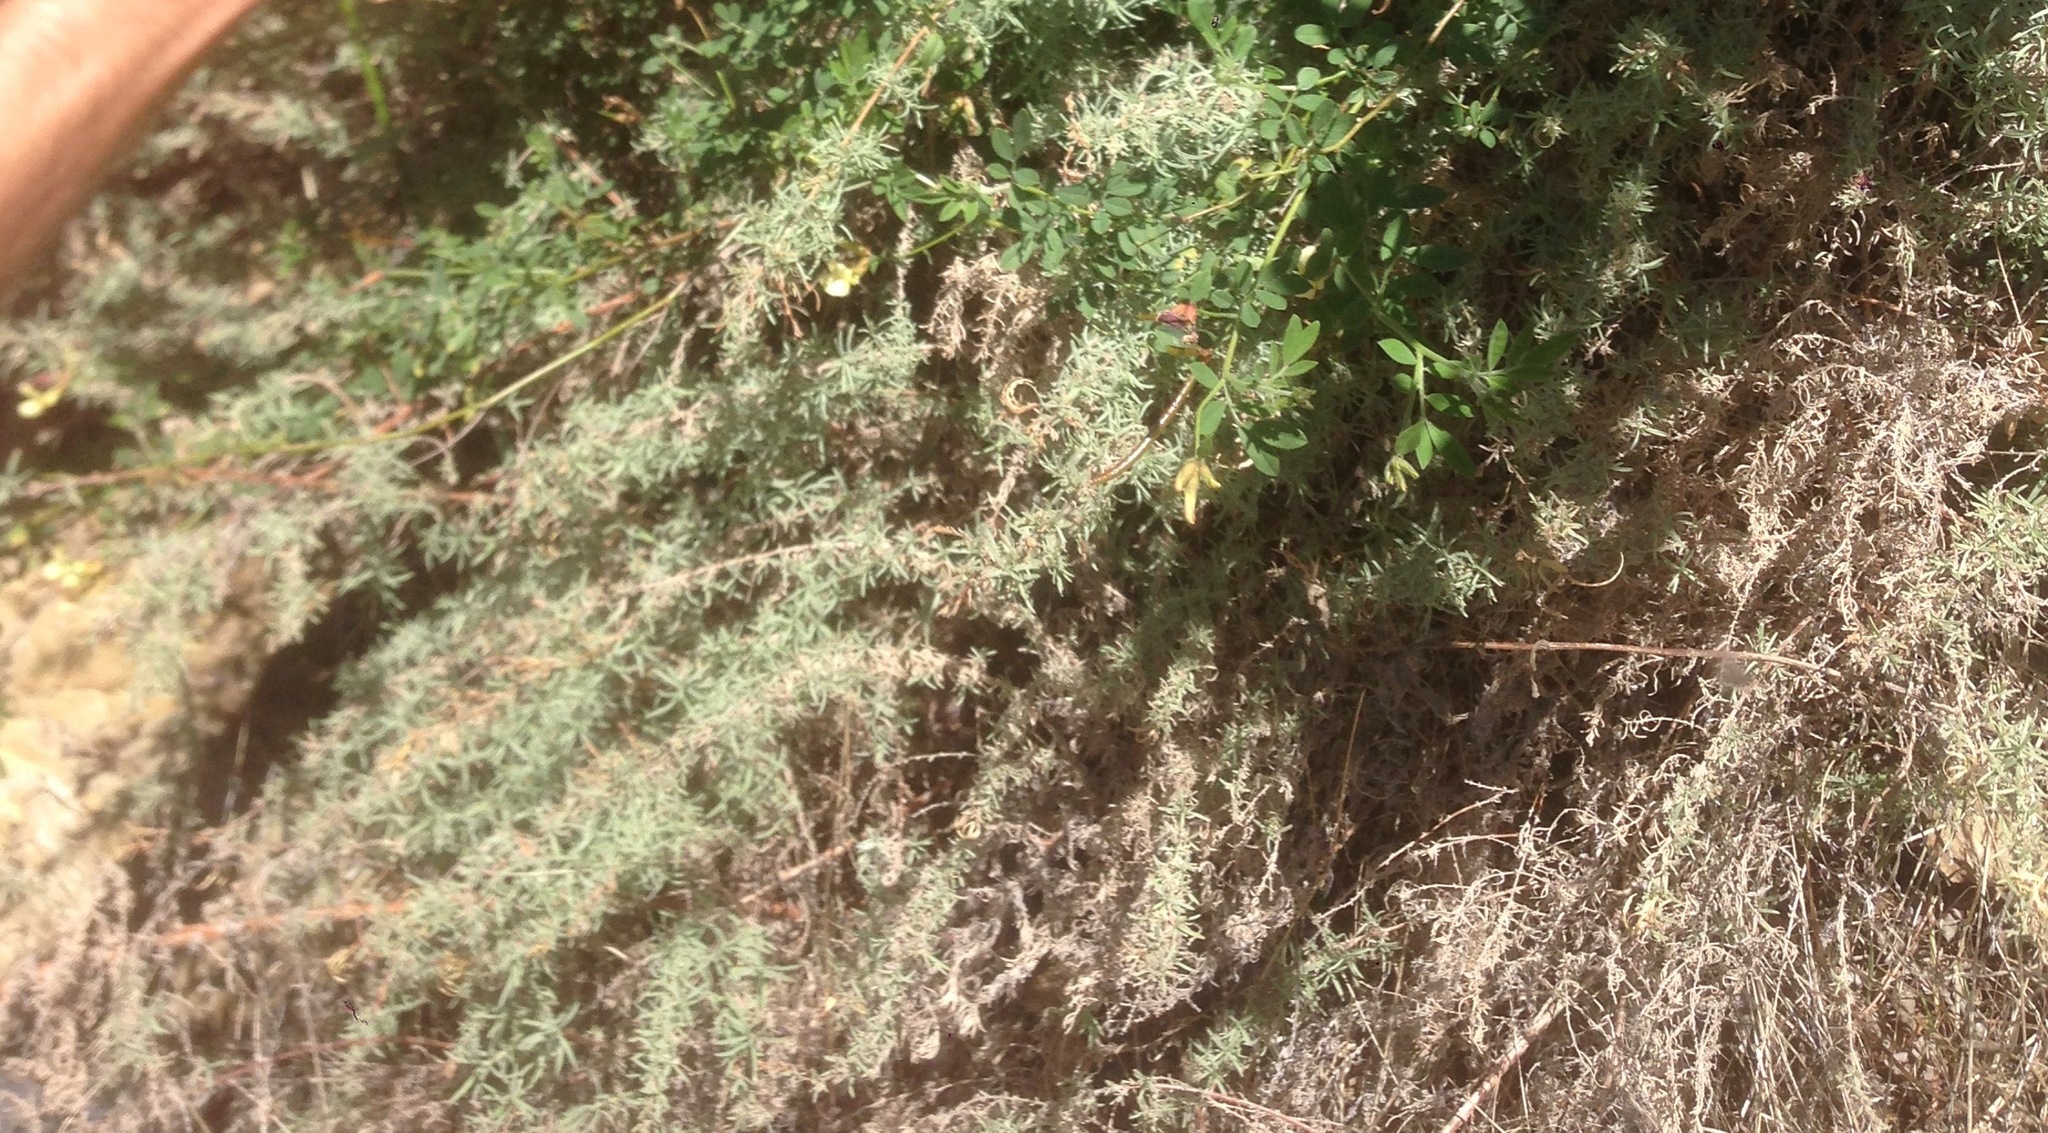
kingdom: Plantae
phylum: Tracheophyta
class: Magnoliopsida
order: Myrtales
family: Onagraceae
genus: Epilobium
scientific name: Epilobium canum
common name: California-fuchsia
